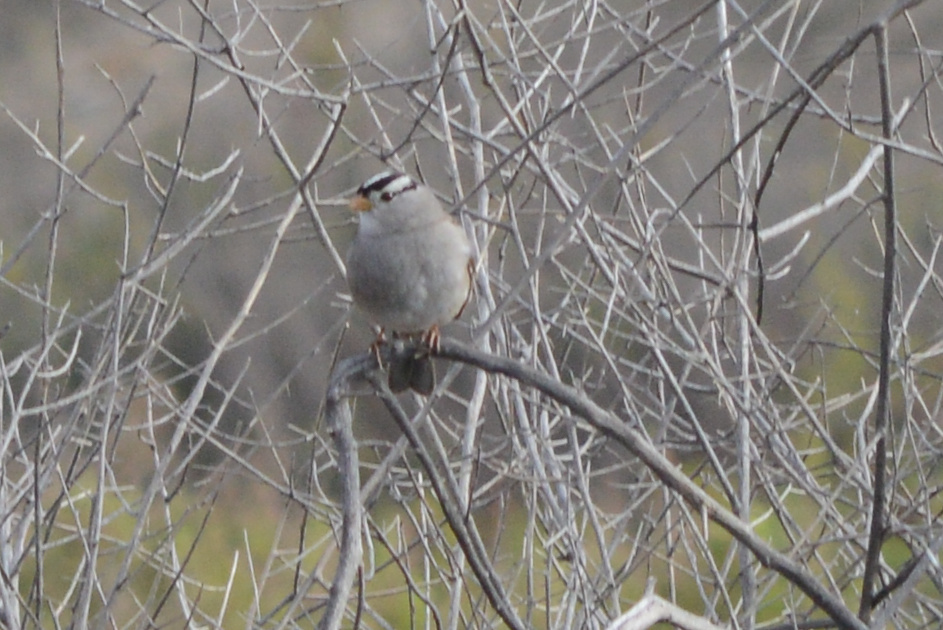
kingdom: Animalia
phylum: Chordata
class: Aves
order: Passeriformes
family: Passerellidae
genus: Zonotrichia
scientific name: Zonotrichia leucophrys
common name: White-crowned sparrow
